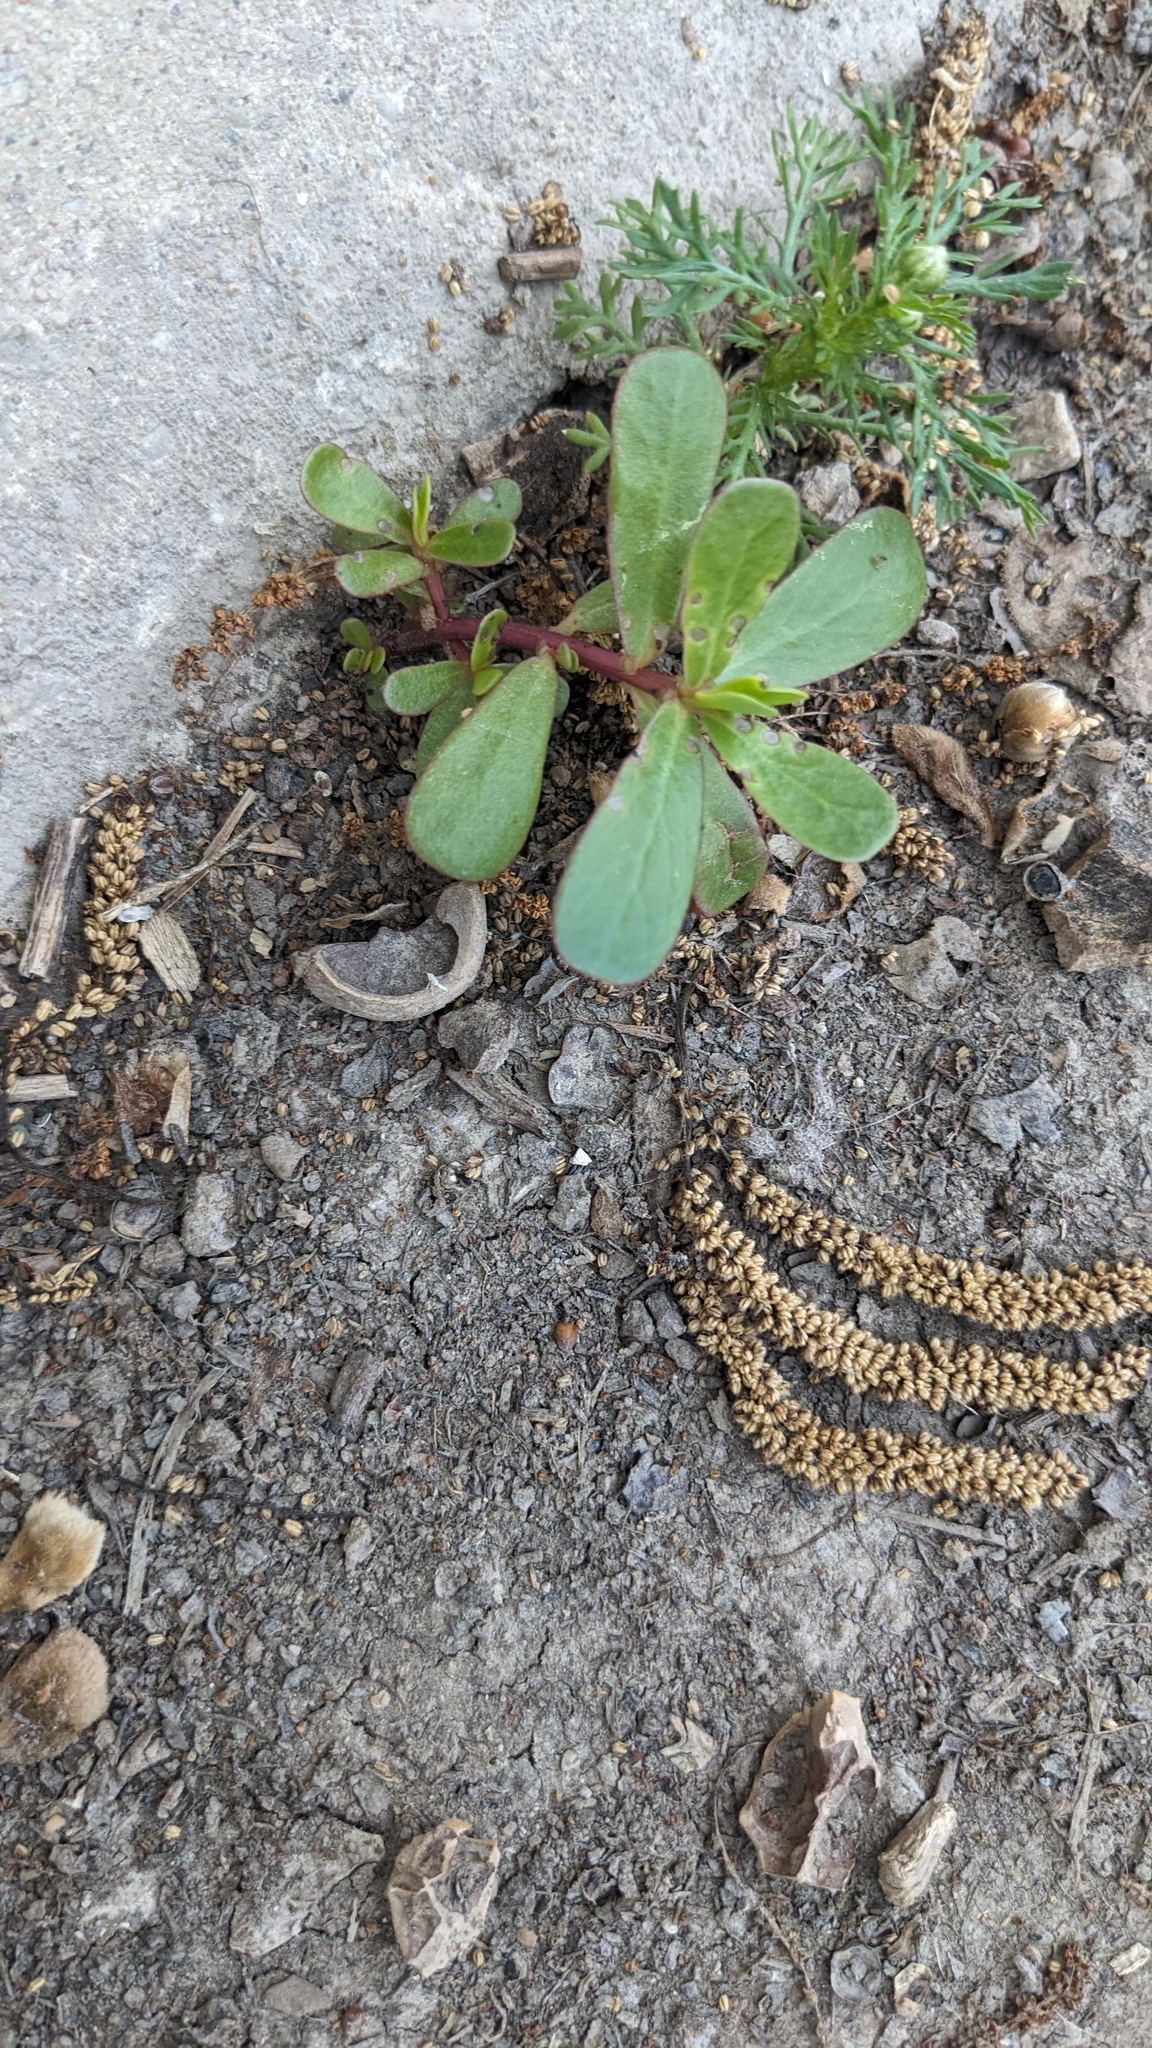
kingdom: Plantae
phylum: Tracheophyta
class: Magnoliopsida
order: Caryophyllales
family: Portulacaceae
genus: Portulaca
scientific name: Portulaca oleracea
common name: Common purslane
